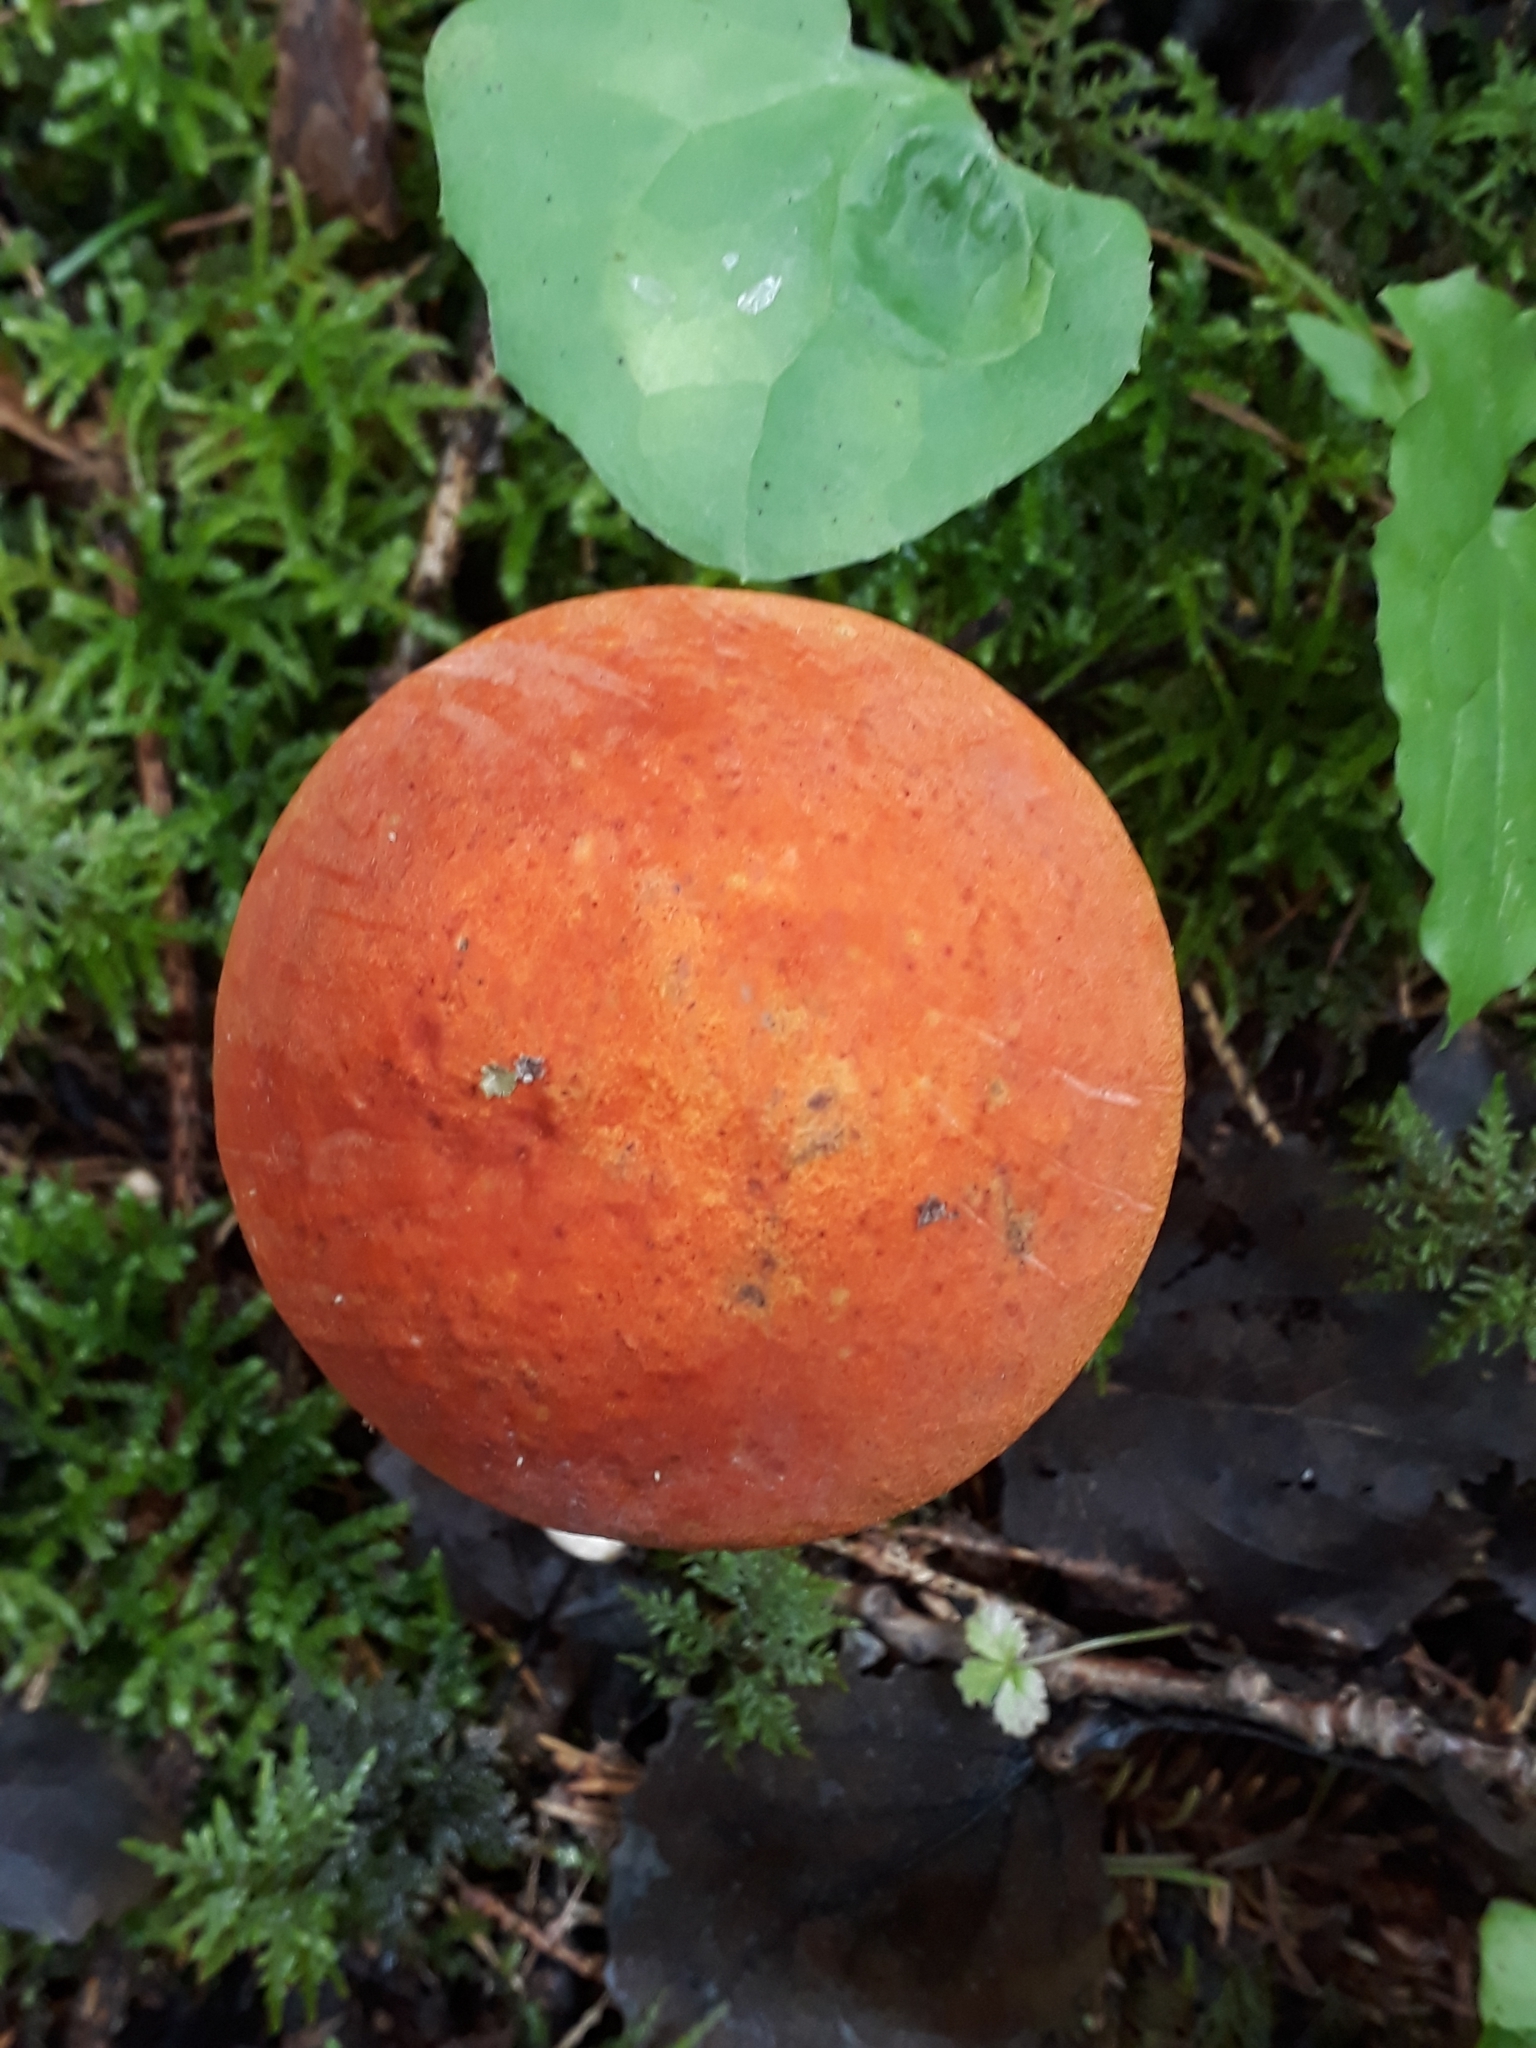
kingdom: Fungi
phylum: Basidiomycota
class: Agaricomycetes
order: Boletales
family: Boletaceae
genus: Leccinum
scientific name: Leccinum aurantiacum
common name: Orange bolete
